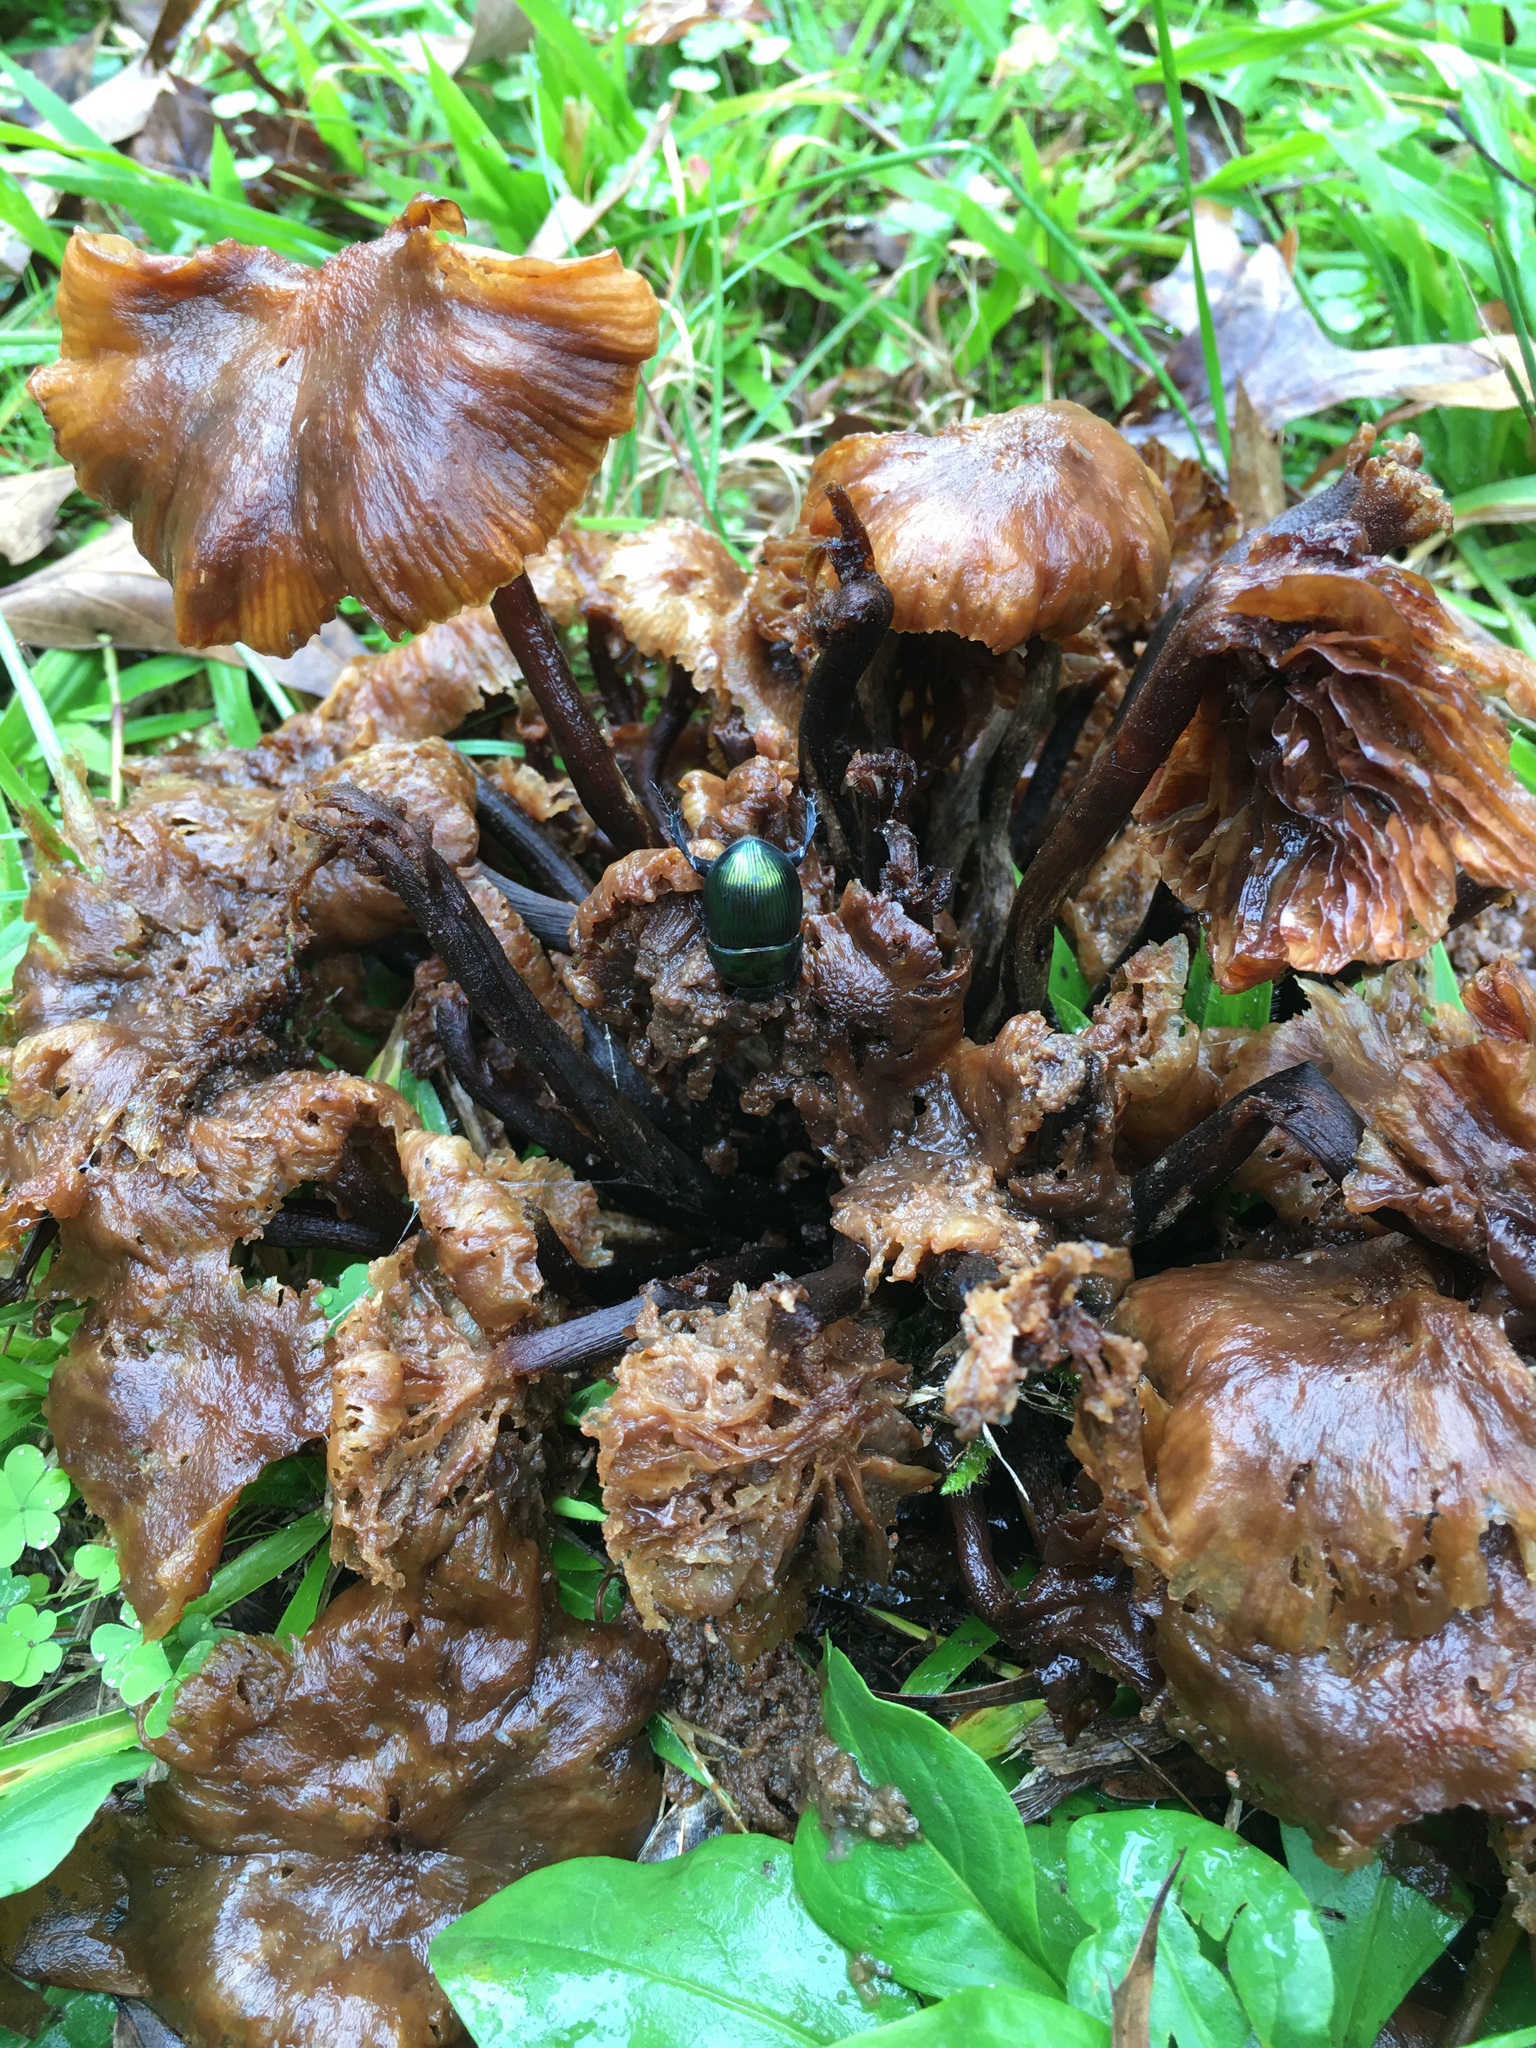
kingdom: Animalia
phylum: Arthropoda
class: Insecta
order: Coleoptera
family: Geotrupidae
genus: Geotrupes
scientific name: Geotrupes splendidus
